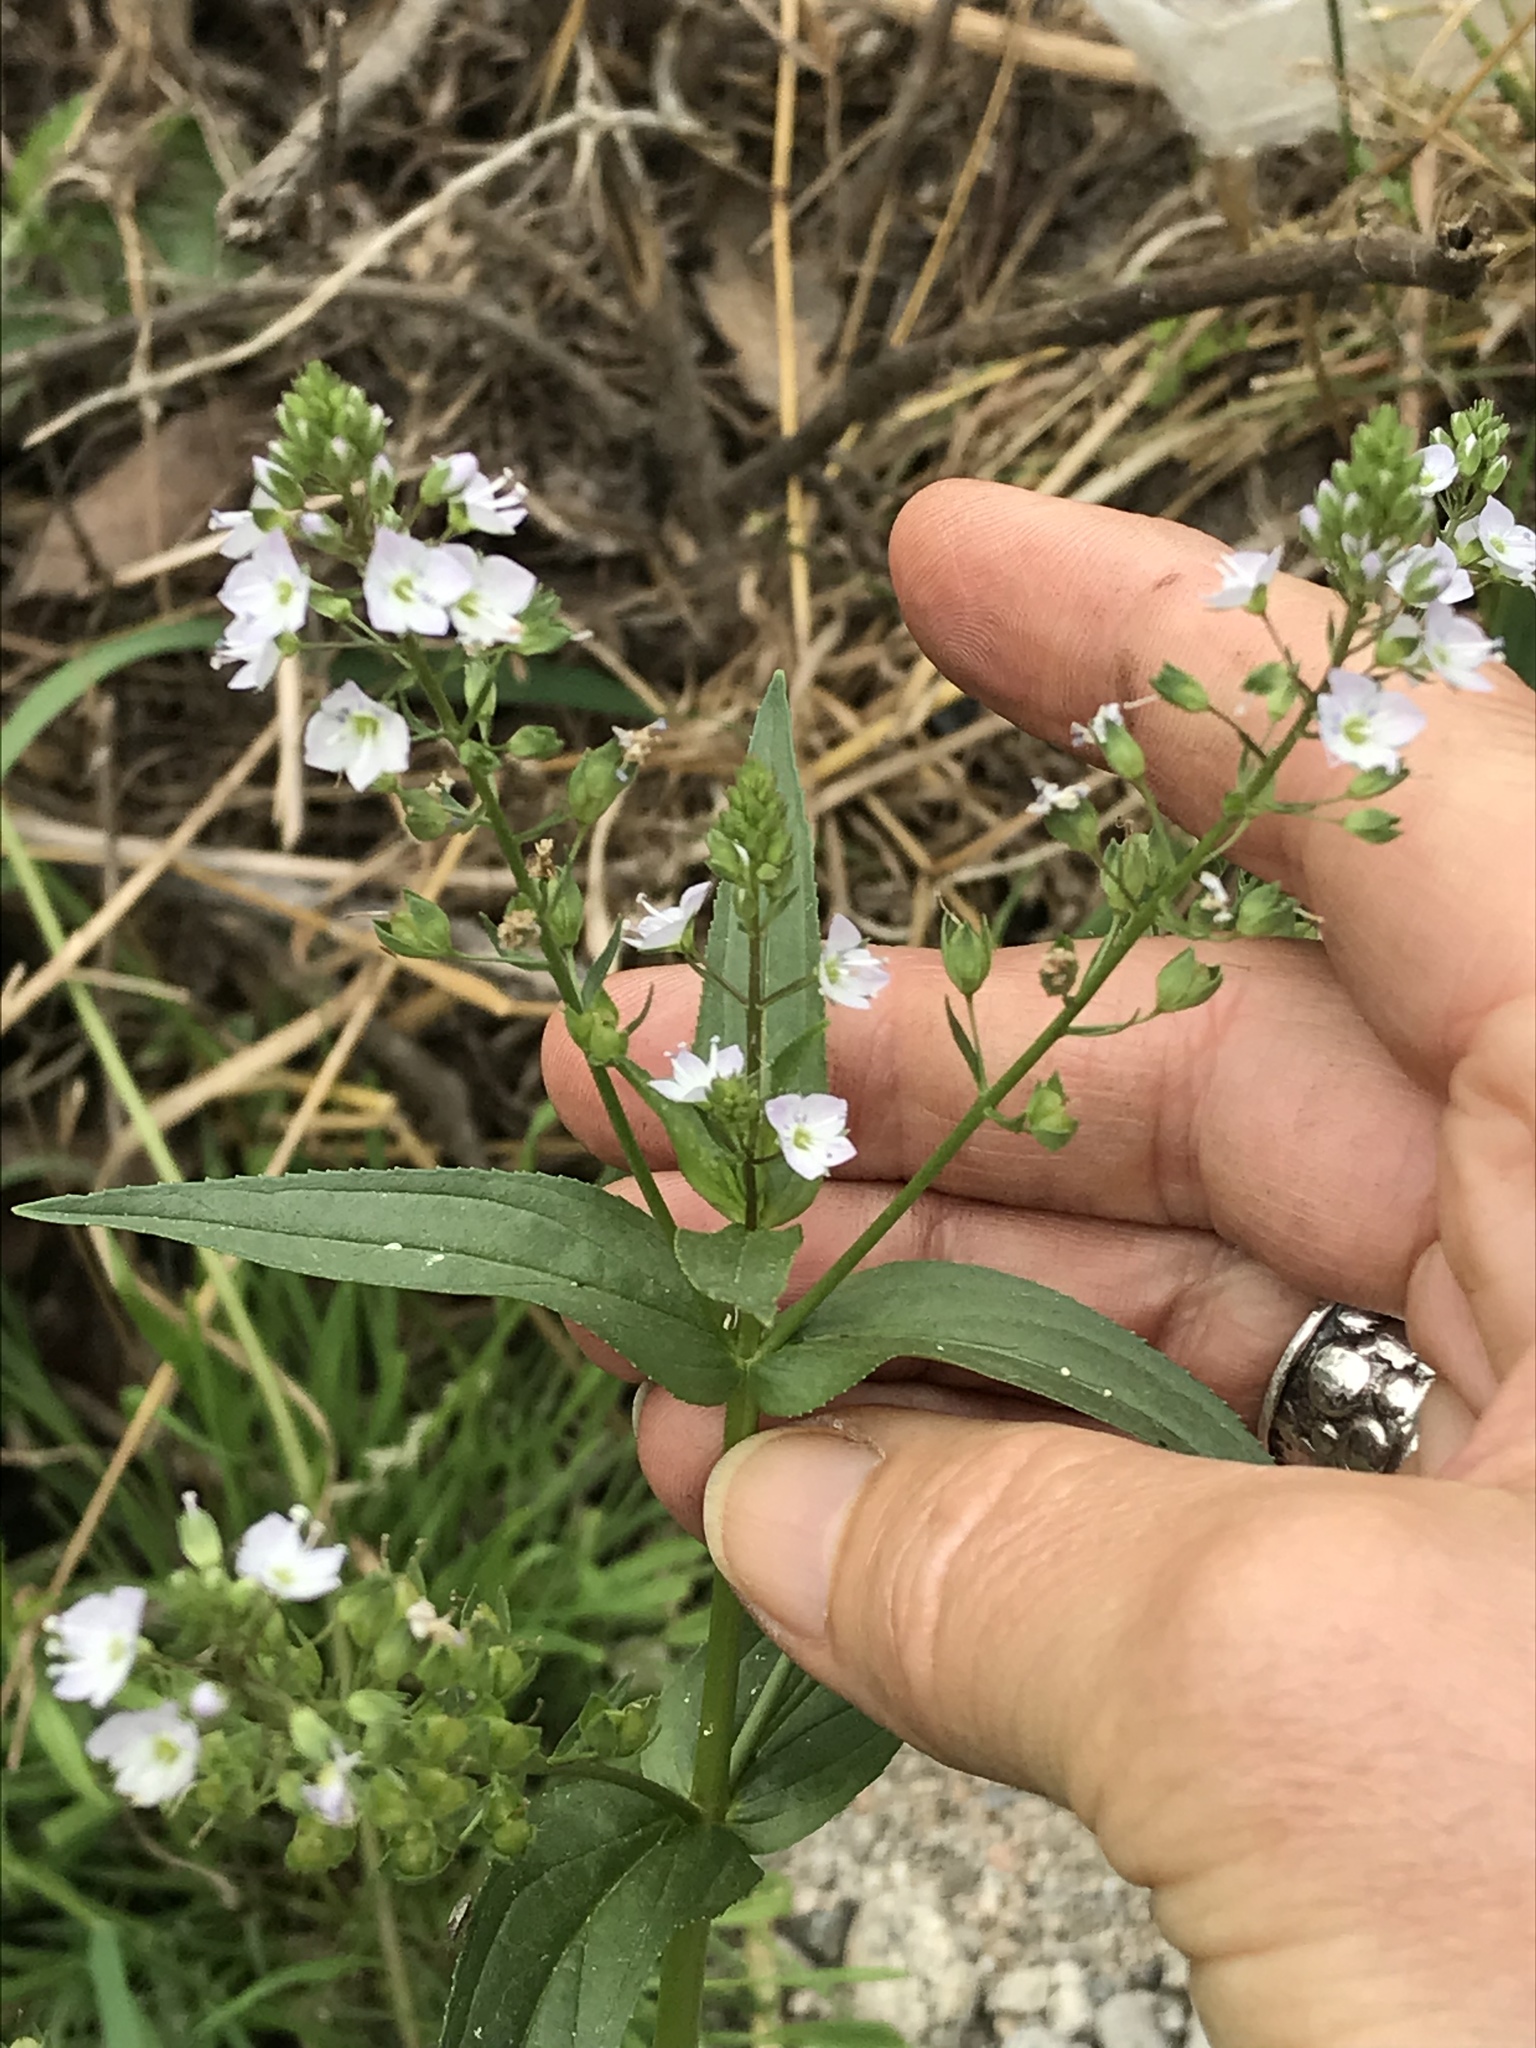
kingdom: Plantae
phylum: Tracheophyta
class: Magnoliopsida
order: Lamiales
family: Plantaginaceae
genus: Veronica
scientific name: Veronica anagallis-aquatica
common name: Water speedwell
